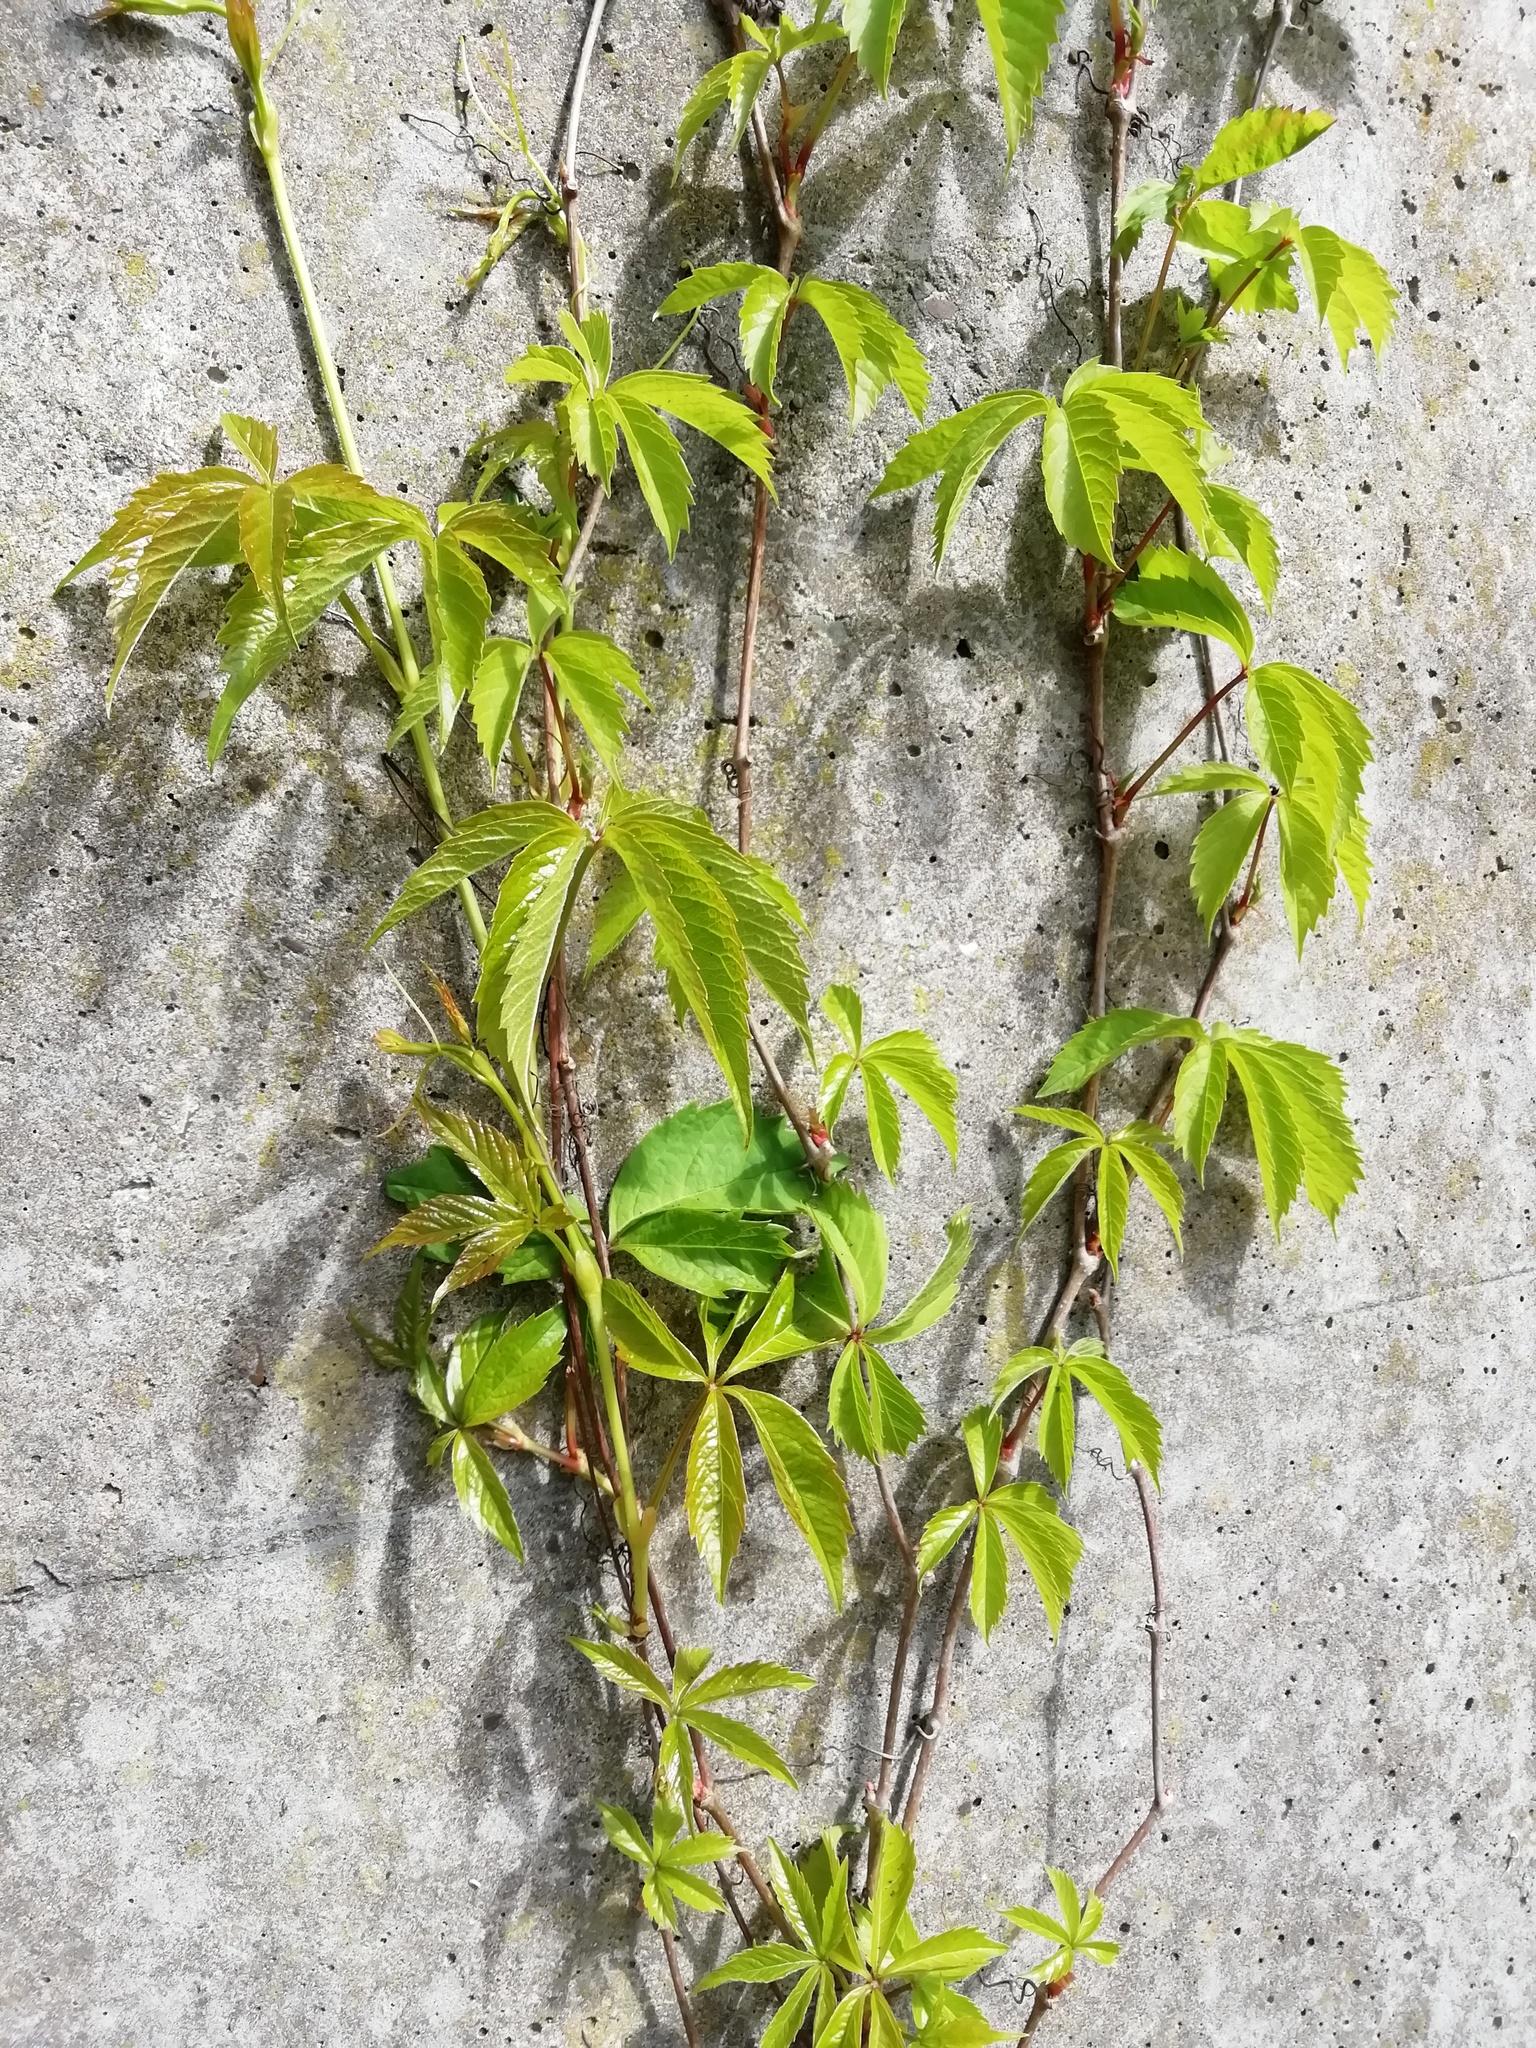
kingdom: Plantae
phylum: Tracheophyta
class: Magnoliopsida
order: Vitales
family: Vitaceae
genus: Parthenocissus
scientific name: Parthenocissus quinquefolia
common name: Virginia-creeper
